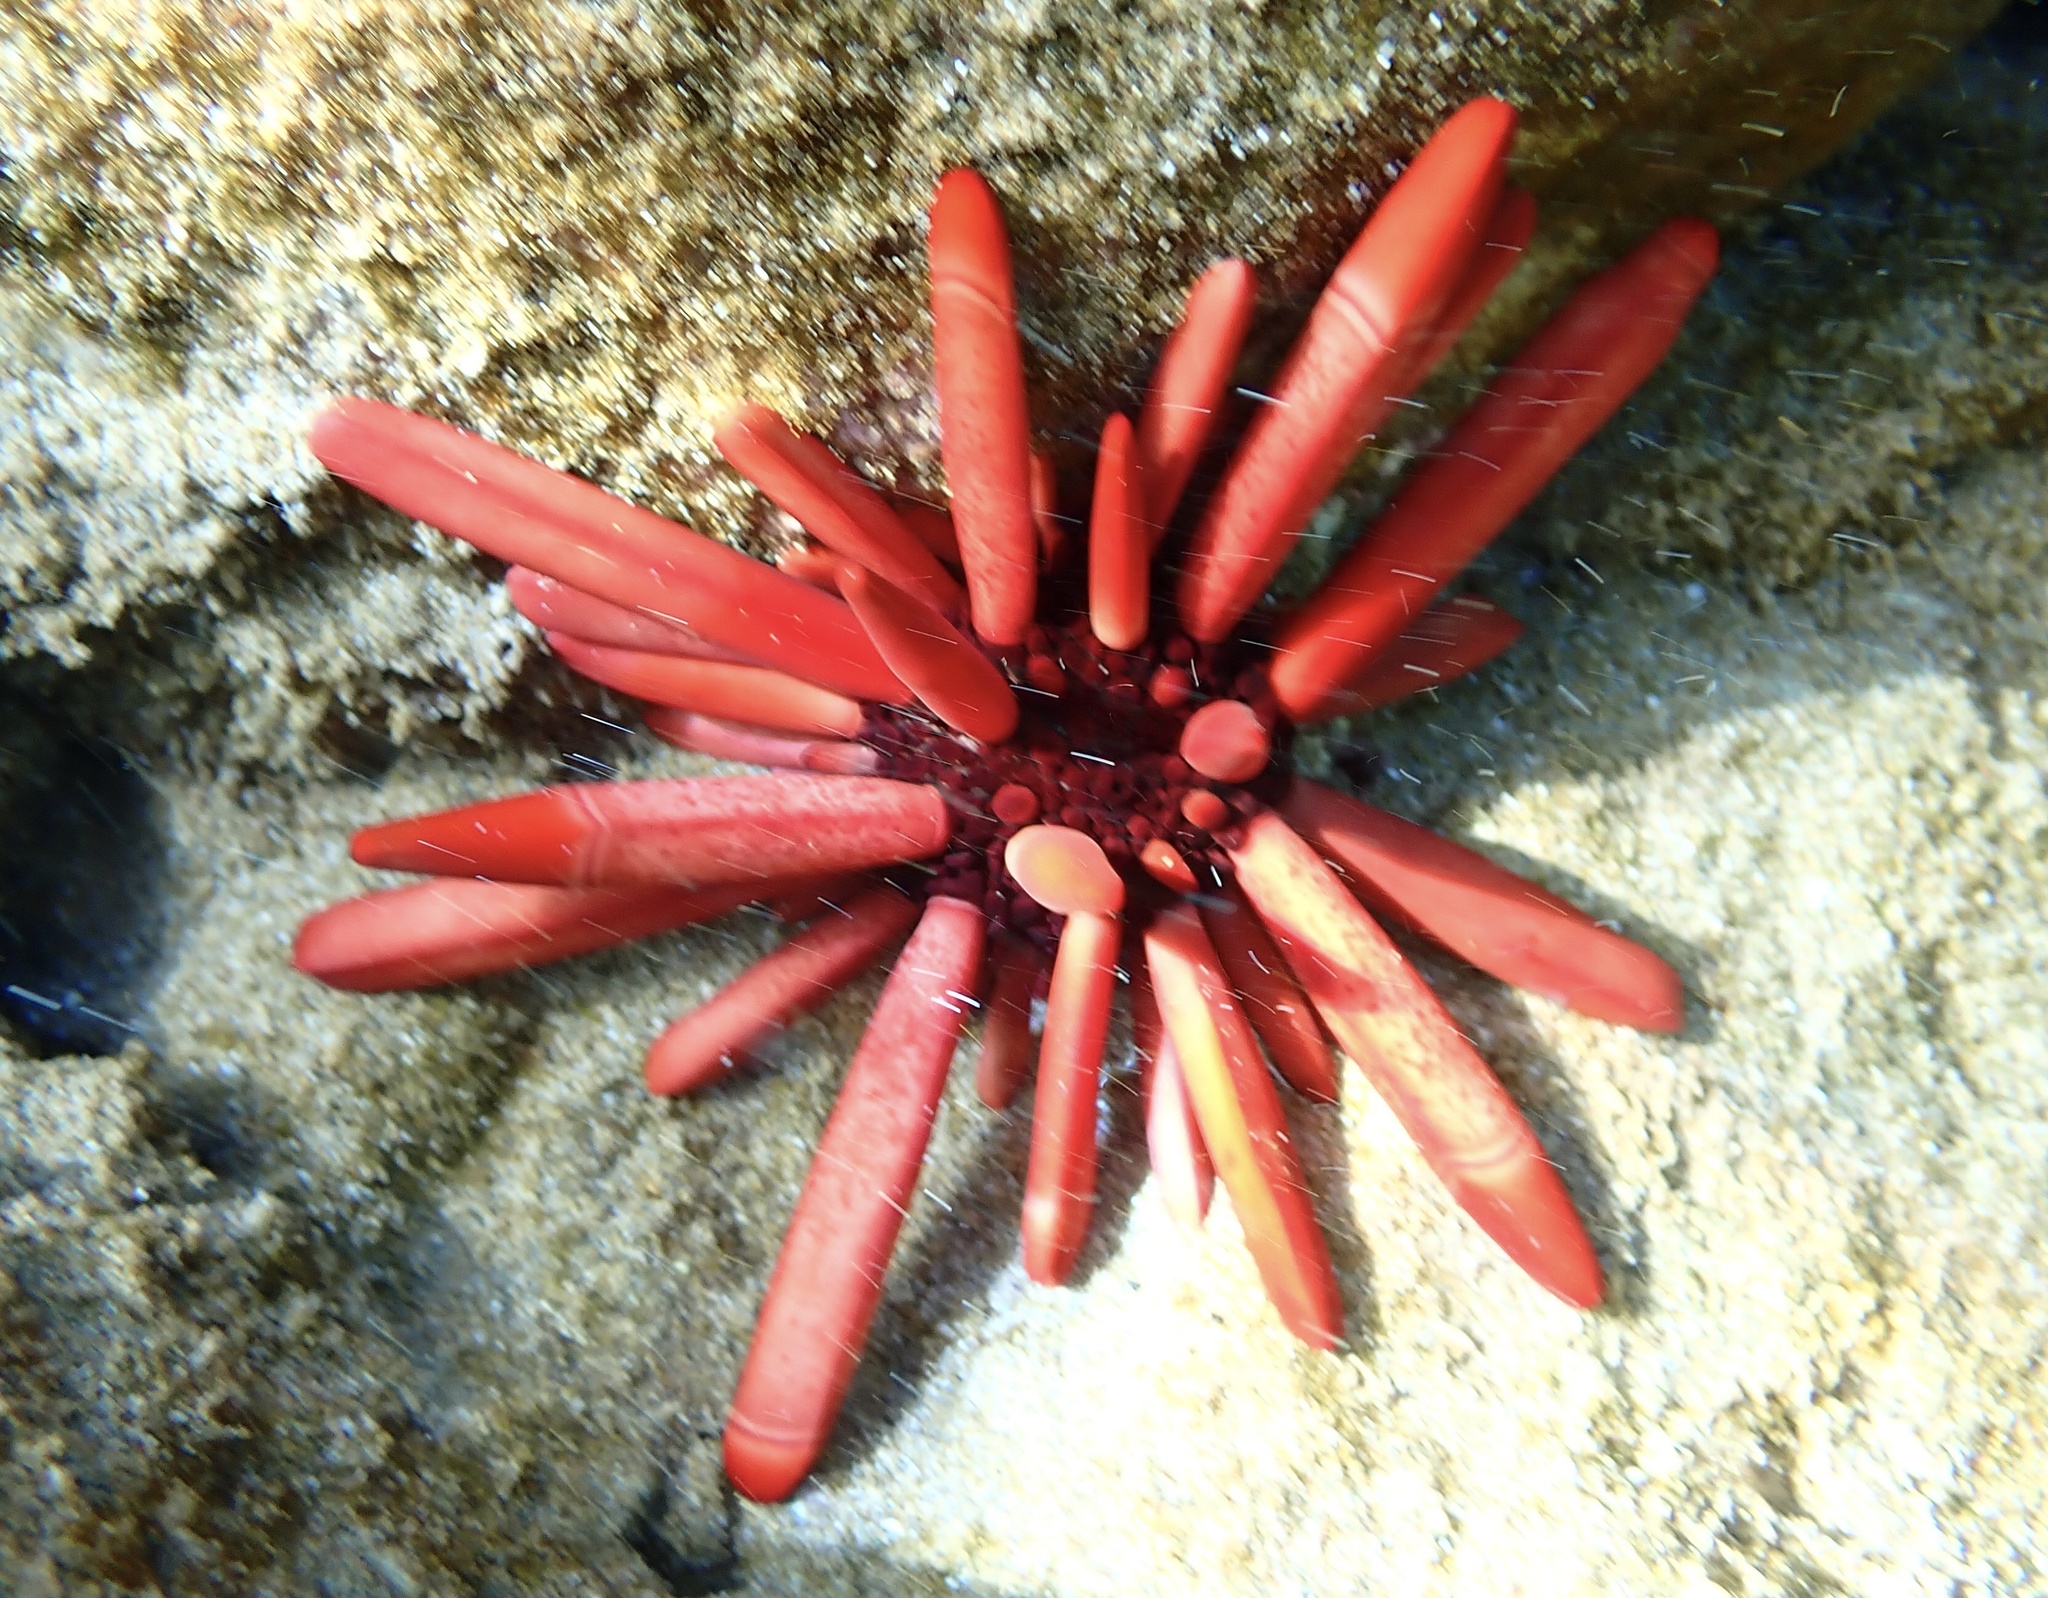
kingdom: Animalia
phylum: Echinodermata
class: Echinoidea
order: Camarodonta
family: Echinometridae
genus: Heterocentrotus
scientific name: Heterocentrotus mamillatus
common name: Slate pencil urchin
